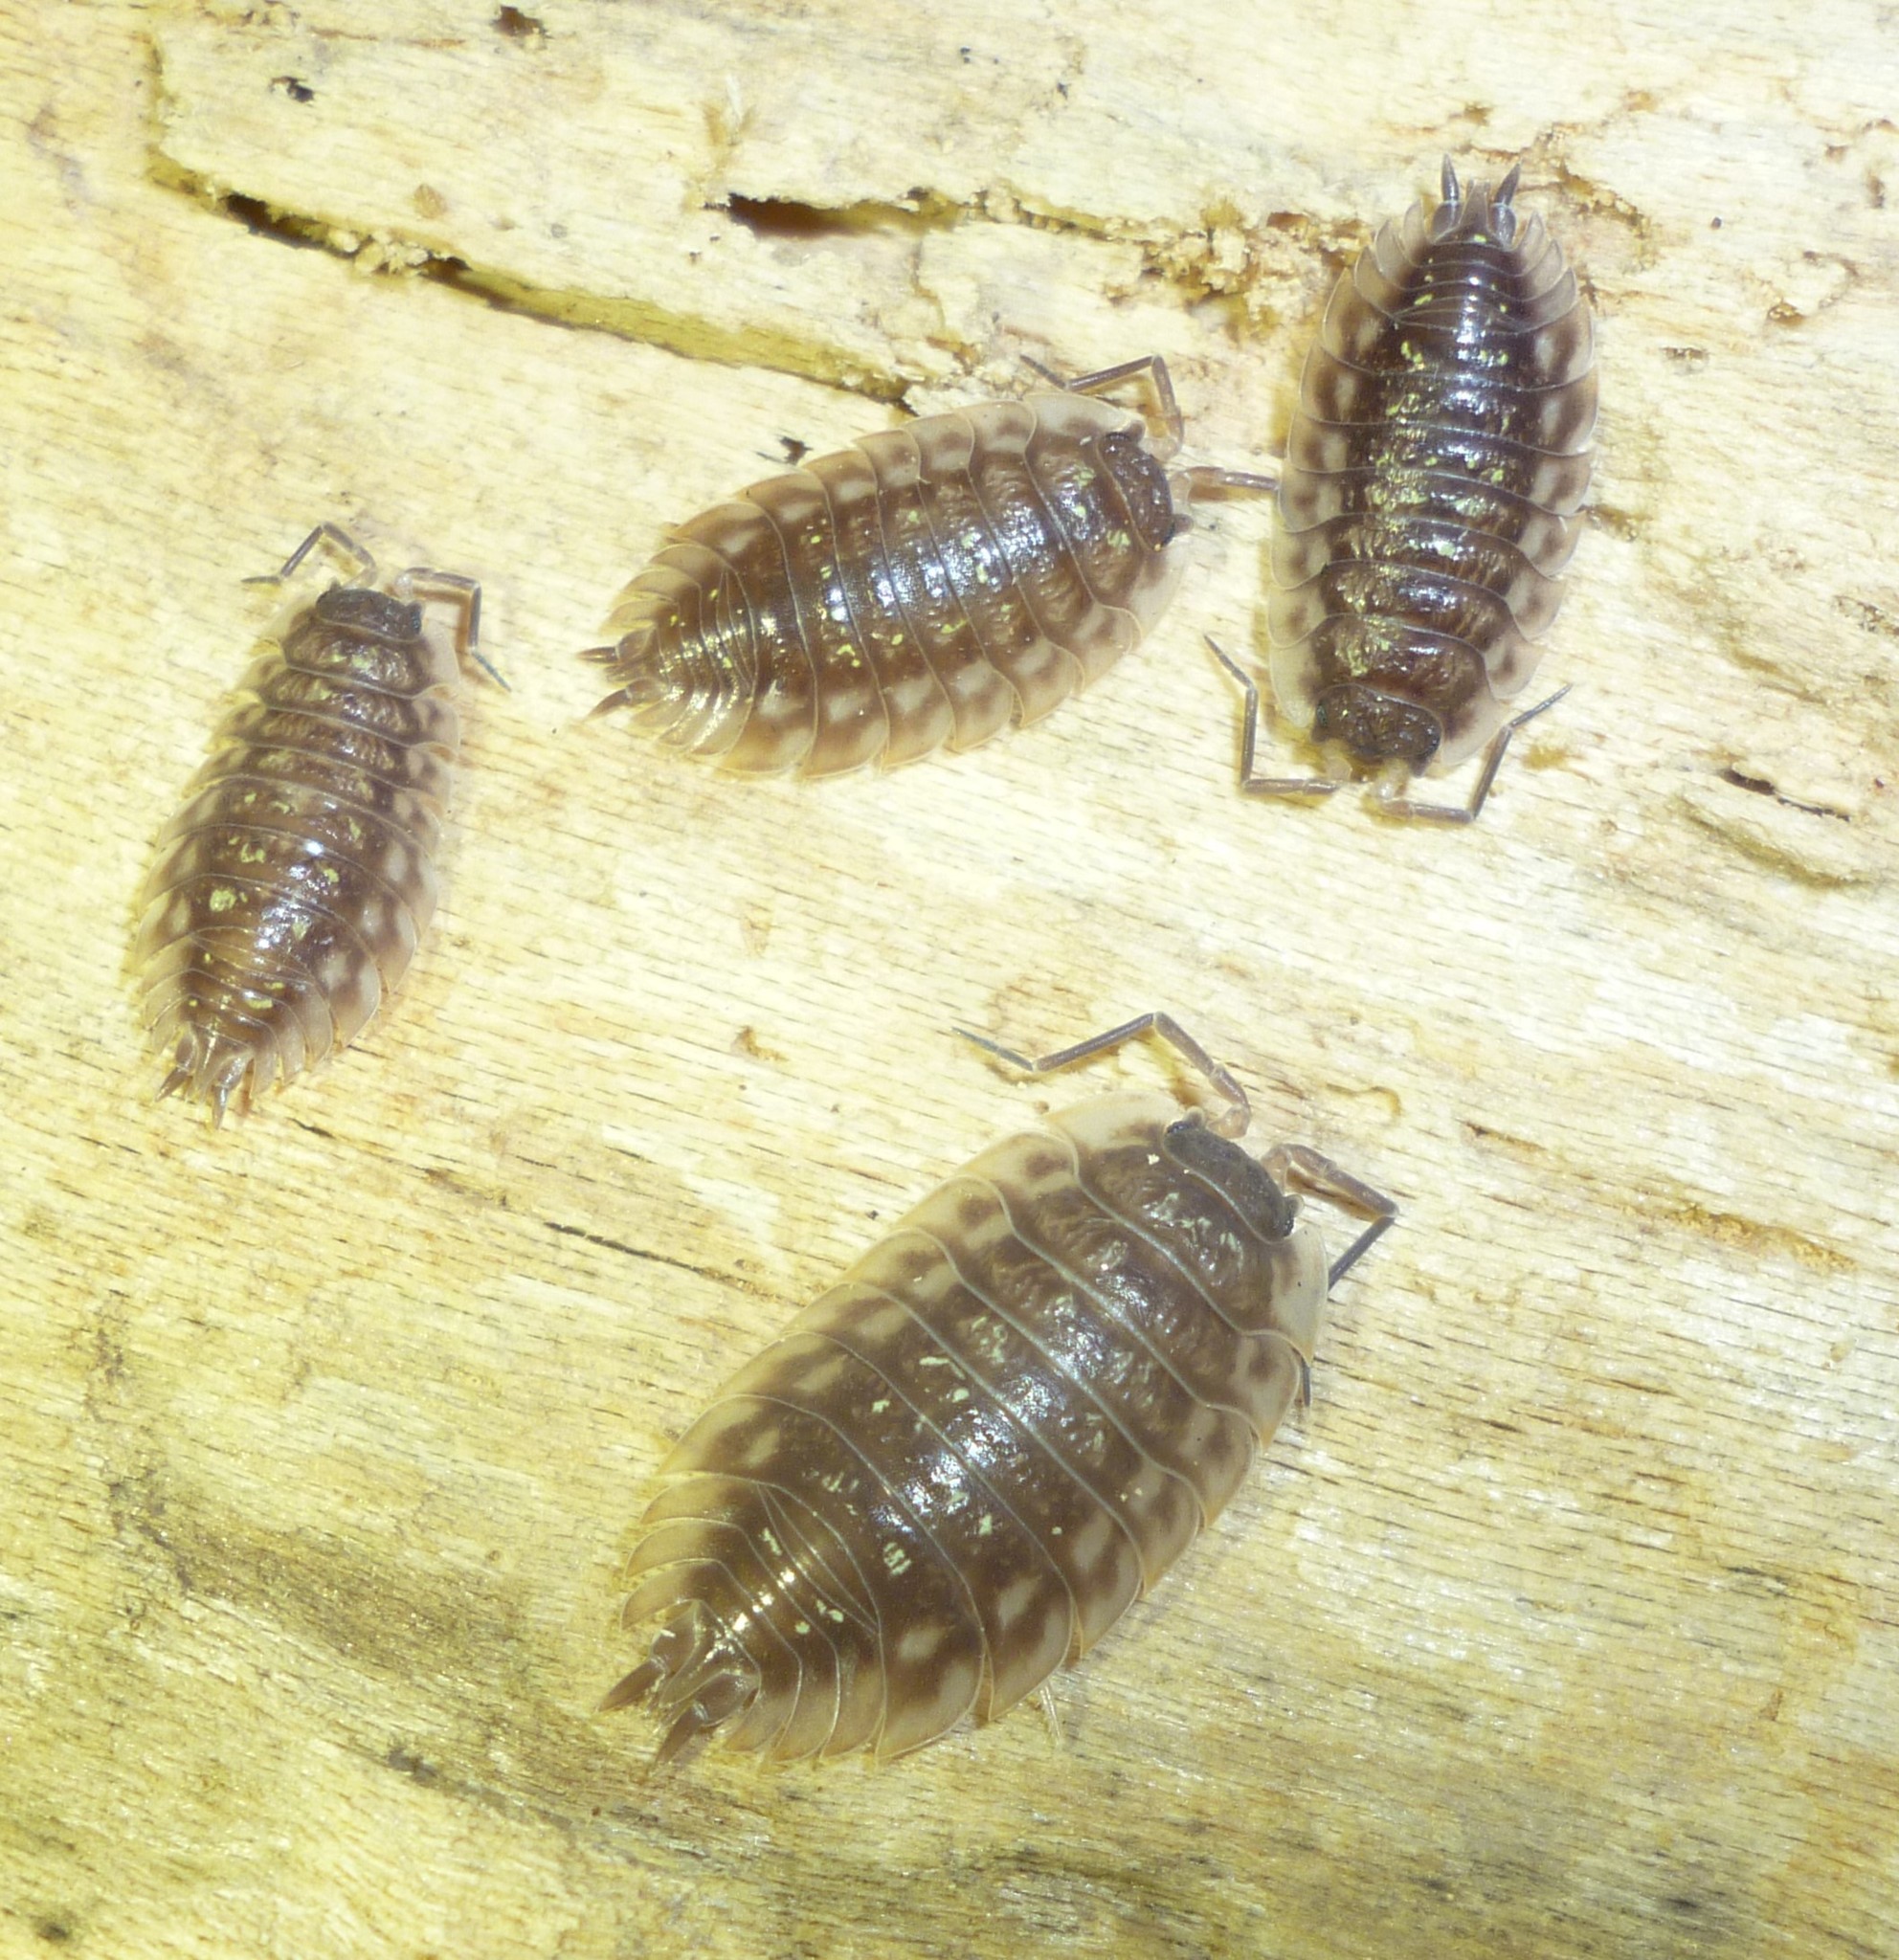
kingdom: Animalia
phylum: Arthropoda
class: Malacostraca
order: Isopoda
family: Oniscidae
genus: Oniscus
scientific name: Oniscus asellus
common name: Common shiny woodlouse
